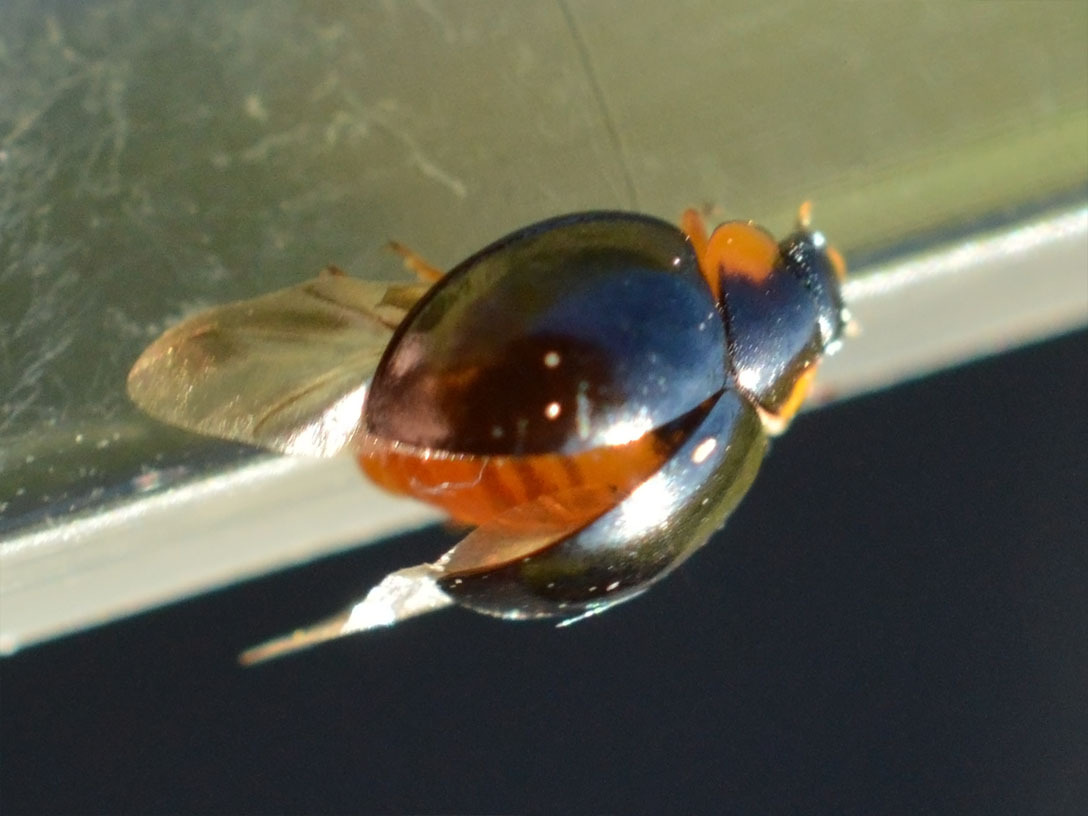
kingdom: Animalia
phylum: Arthropoda
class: Insecta
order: Coleoptera
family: Coccinellidae
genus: Parexochomus
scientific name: Parexochomus nigromaculatus
